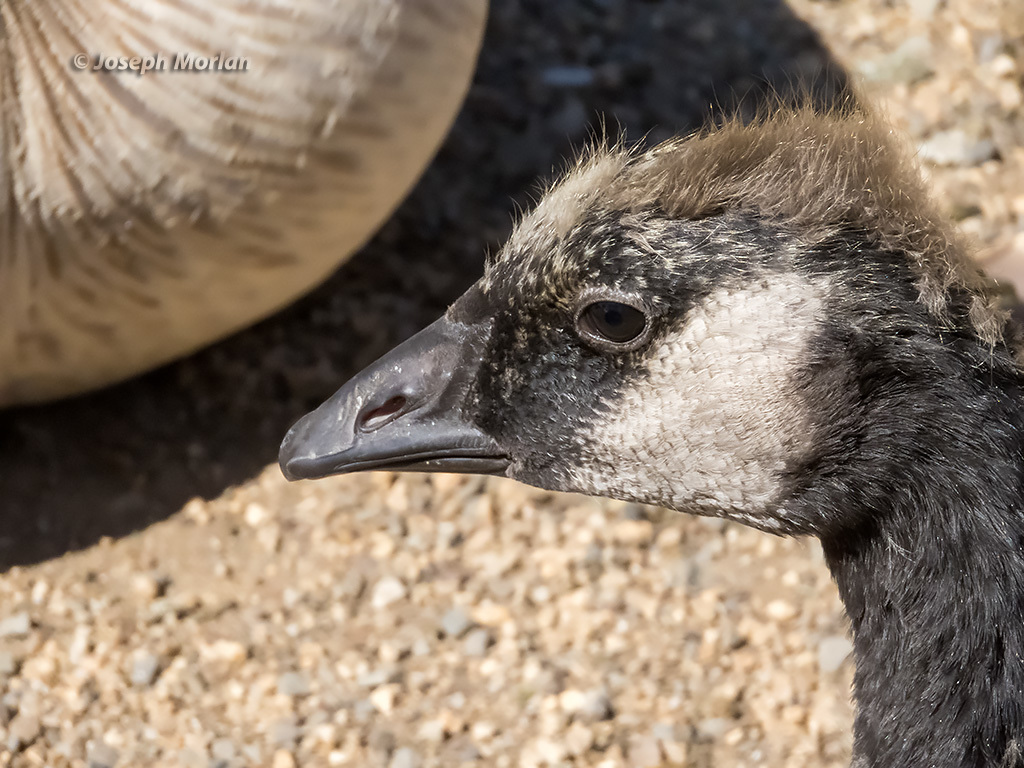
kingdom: Animalia
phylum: Chordata
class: Aves
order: Anseriformes
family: Anatidae
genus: Branta
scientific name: Branta canadensis
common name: Canada goose
